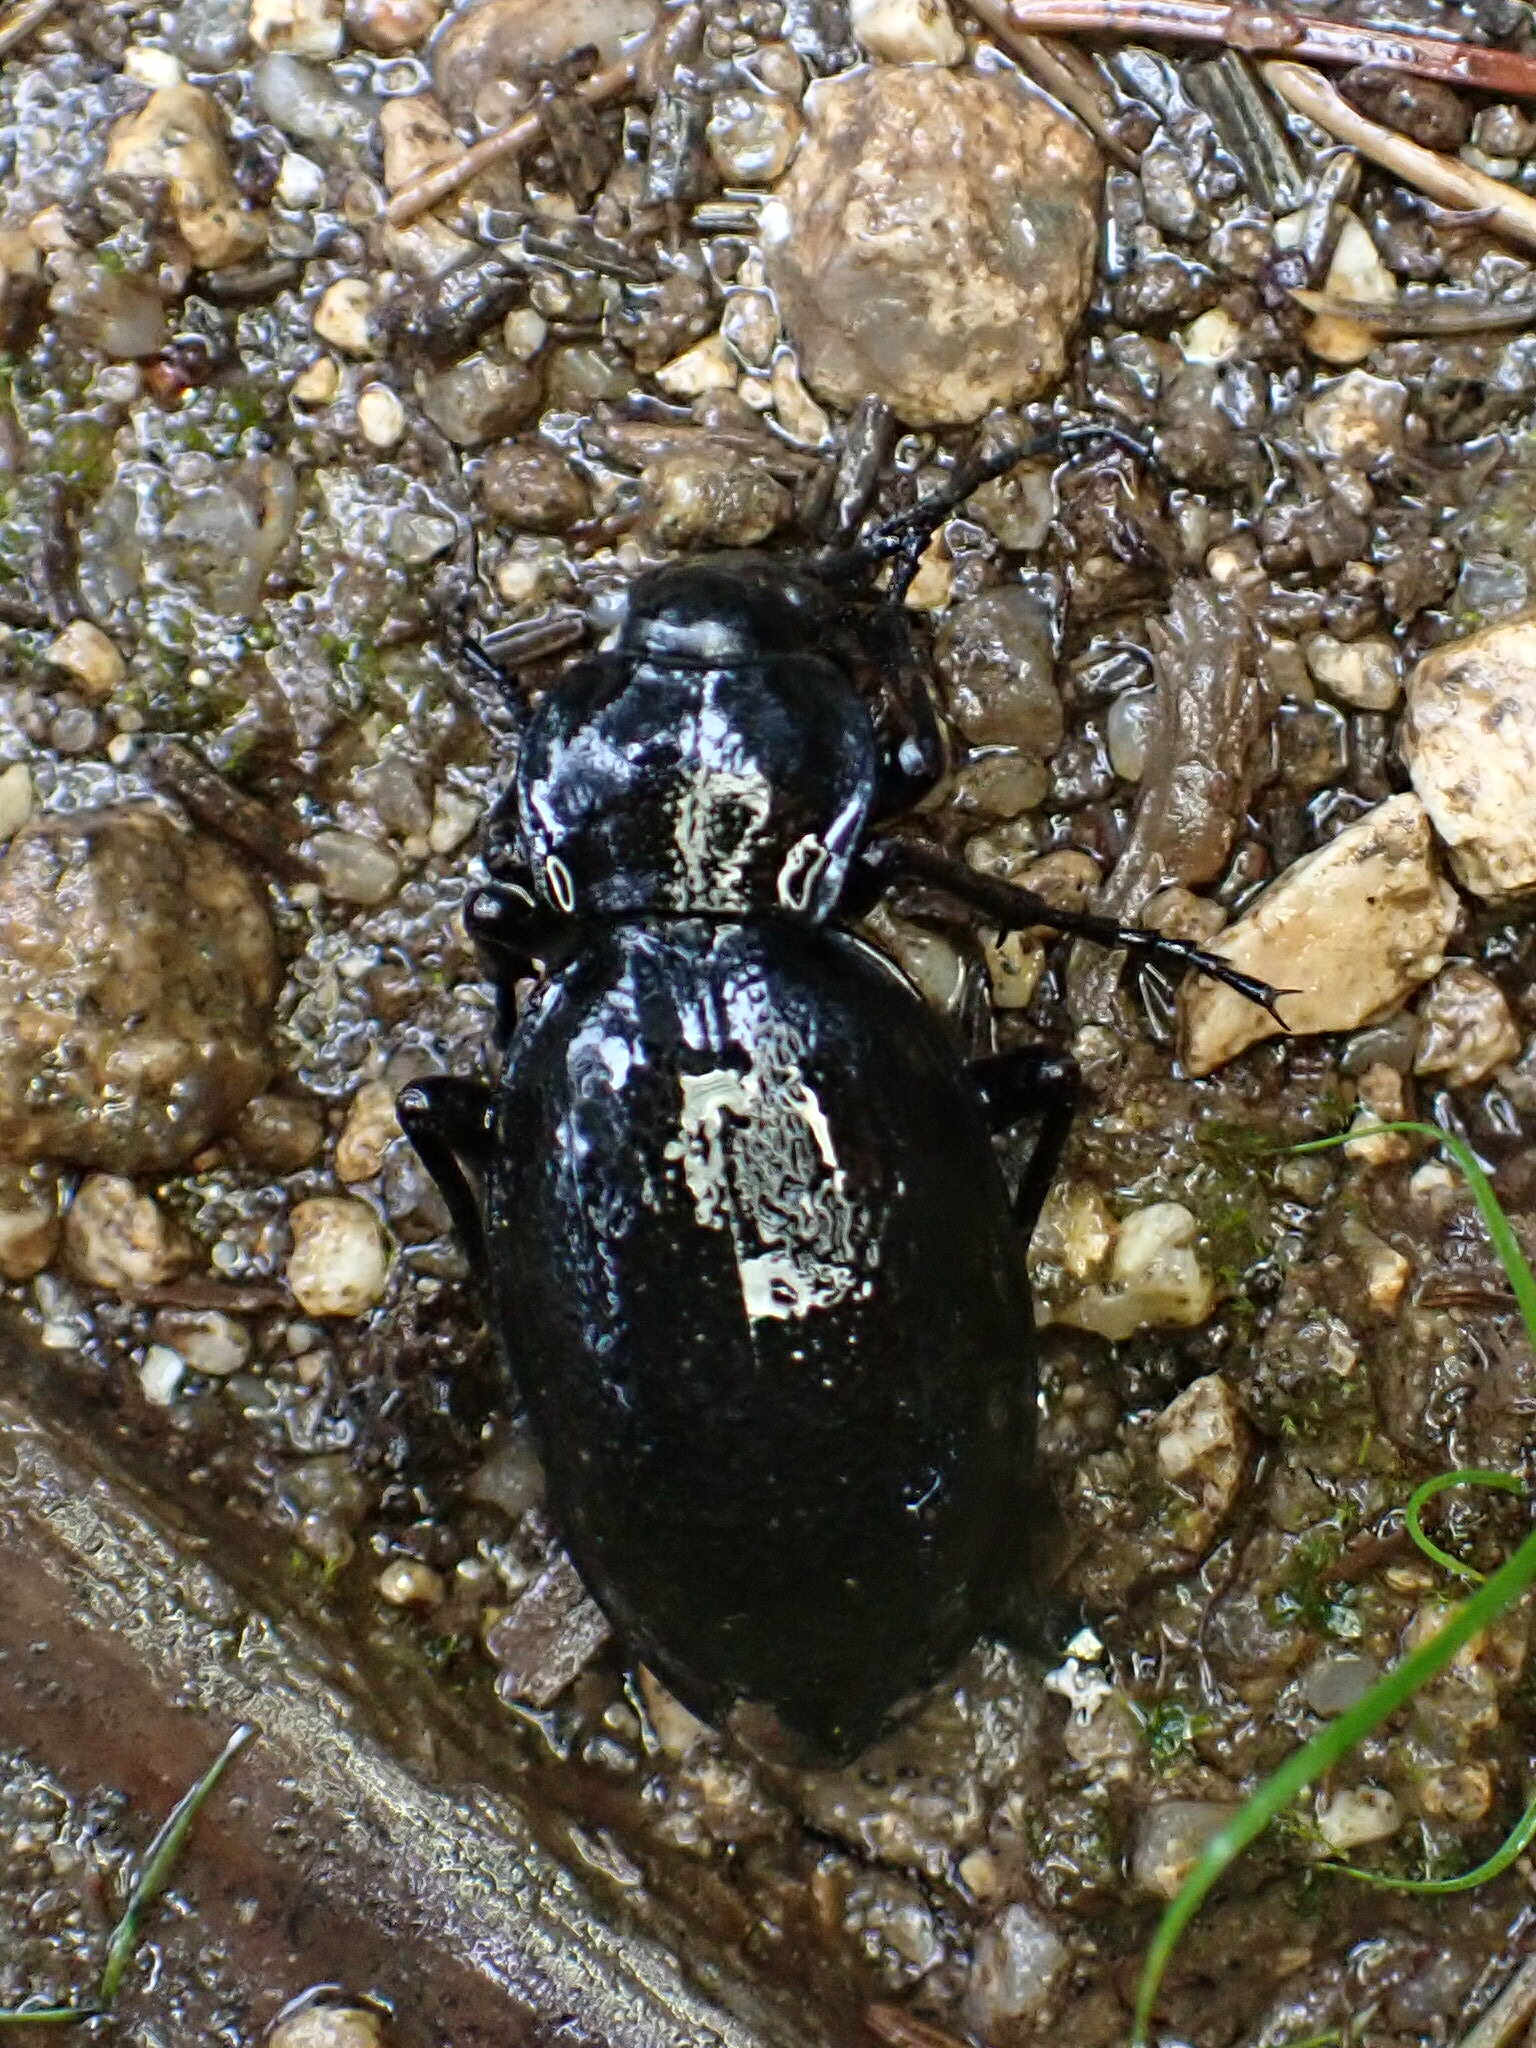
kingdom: Animalia
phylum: Arthropoda
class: Insecta
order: Coleoptera
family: Carabidae
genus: Carabus
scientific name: Carabus coriaceus
